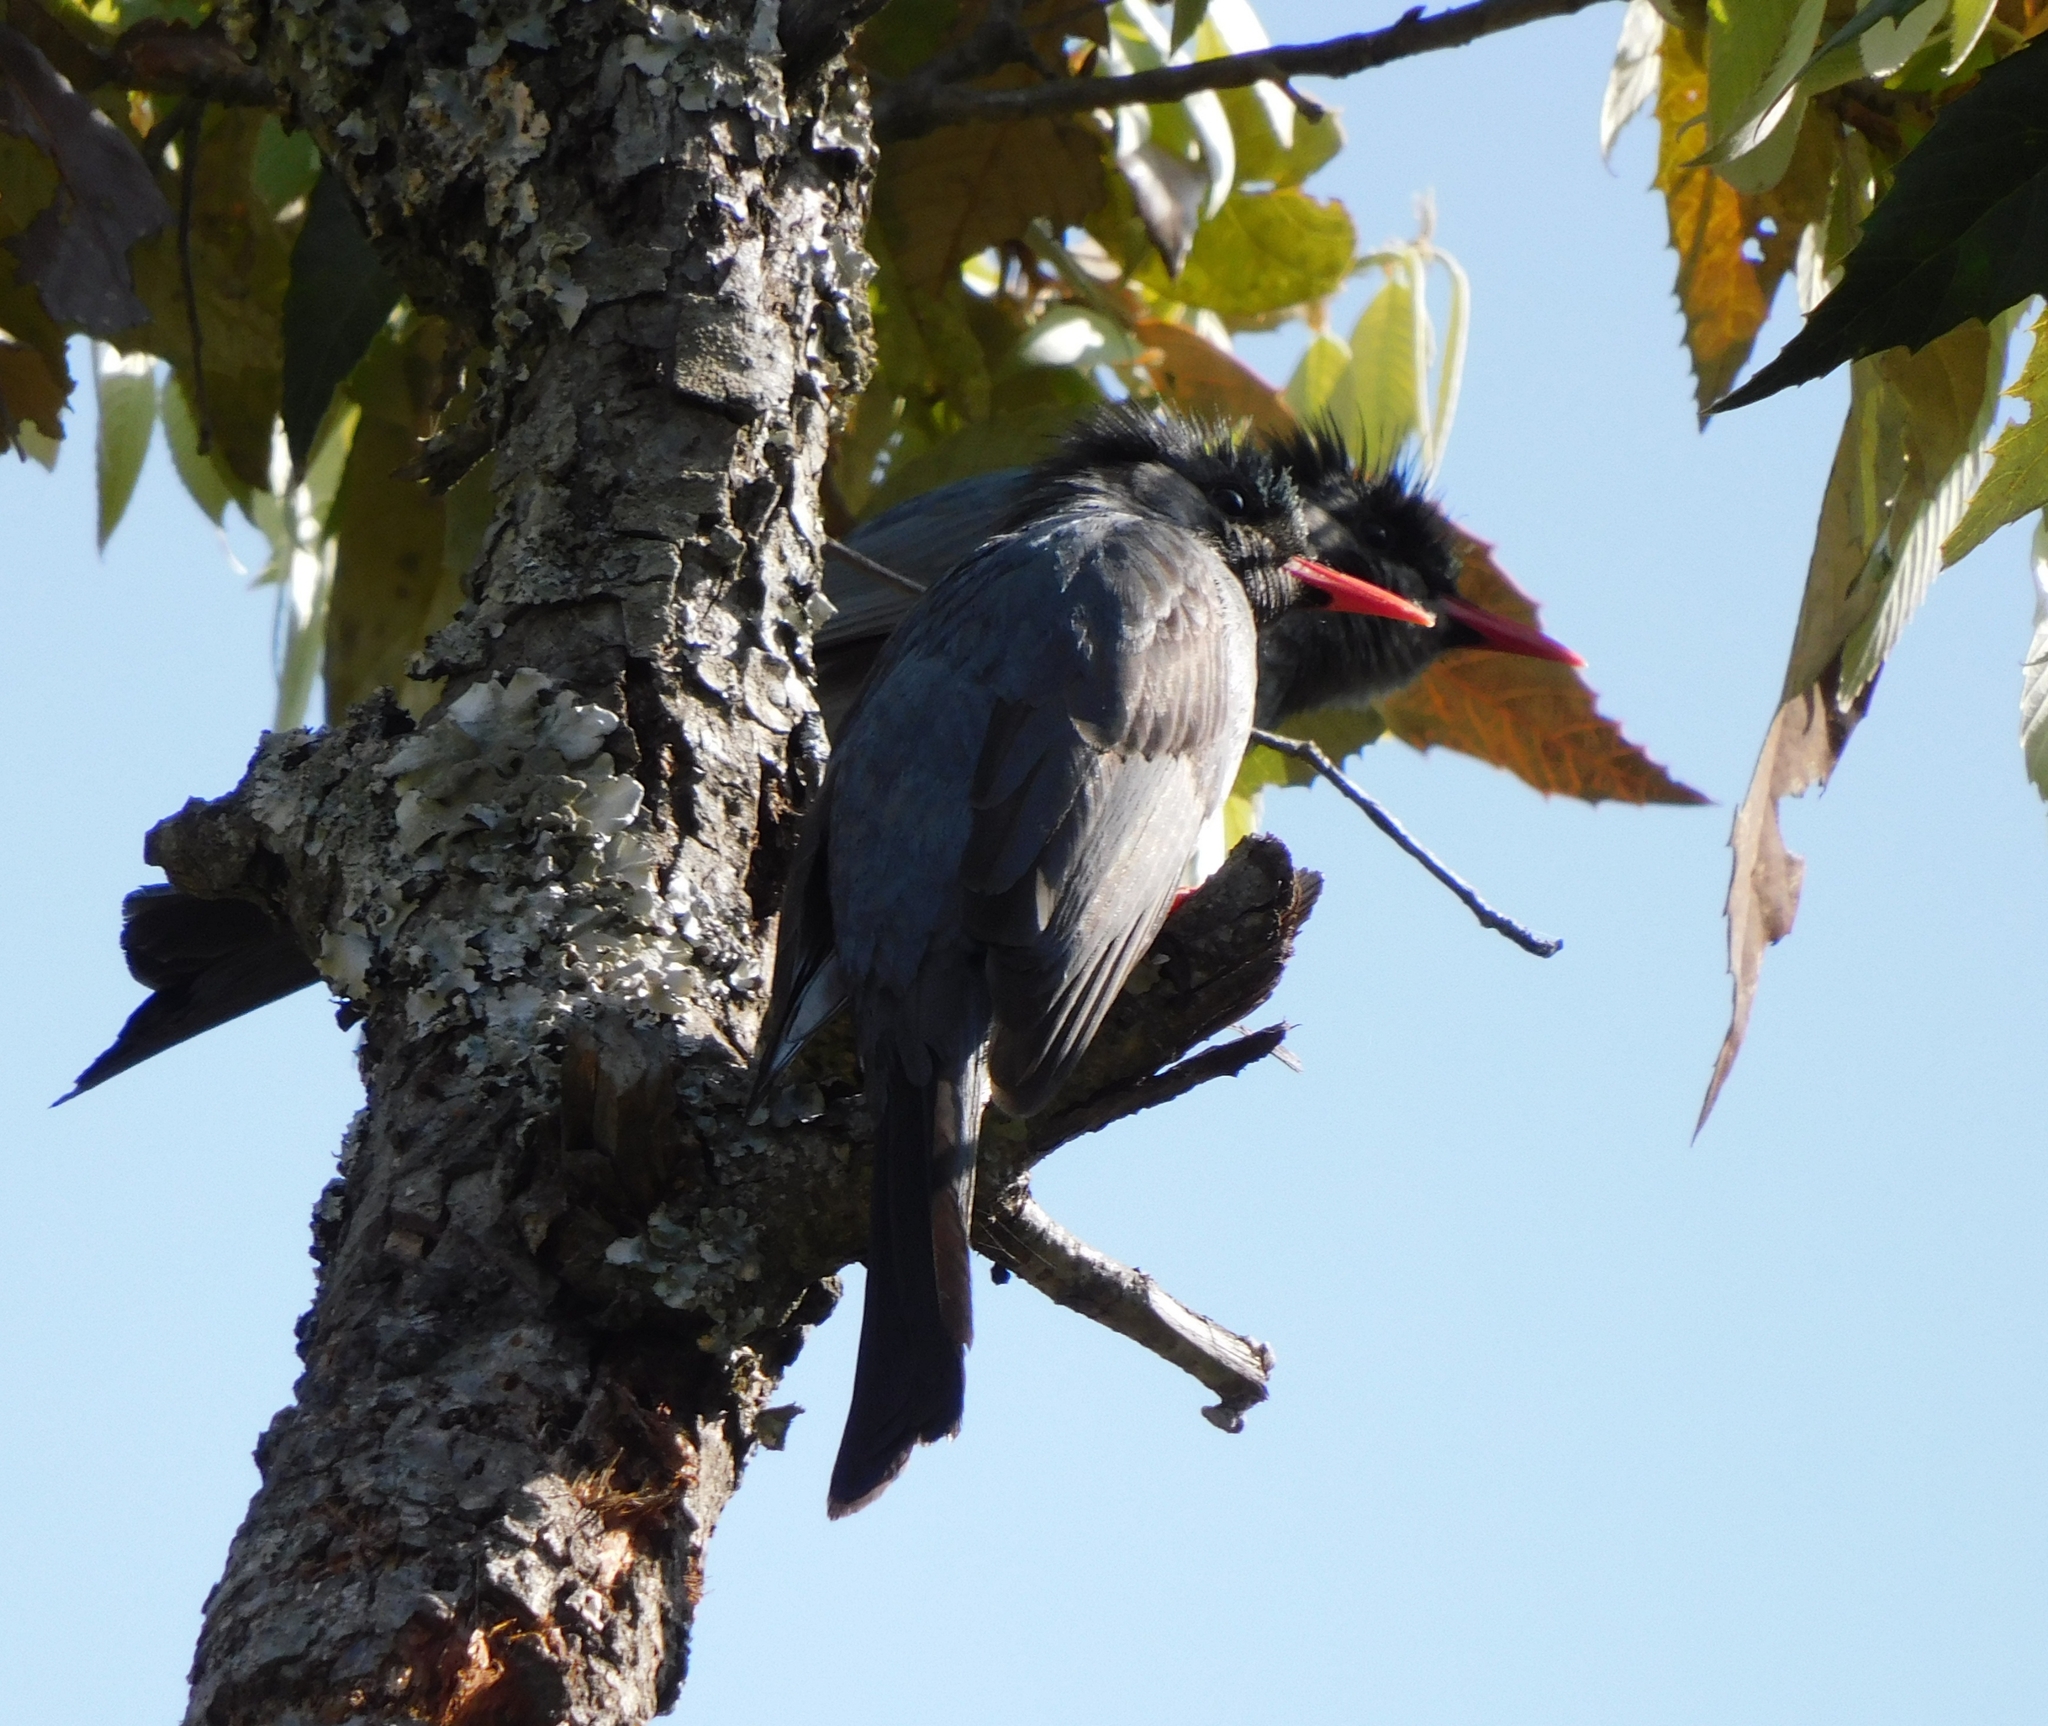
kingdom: Animalia
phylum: Chordata
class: Aves
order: Passeriformes
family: Pycnonotidae
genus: Hypsipetes
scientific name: Hypsipetes leucocephalus
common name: Black bulbul
